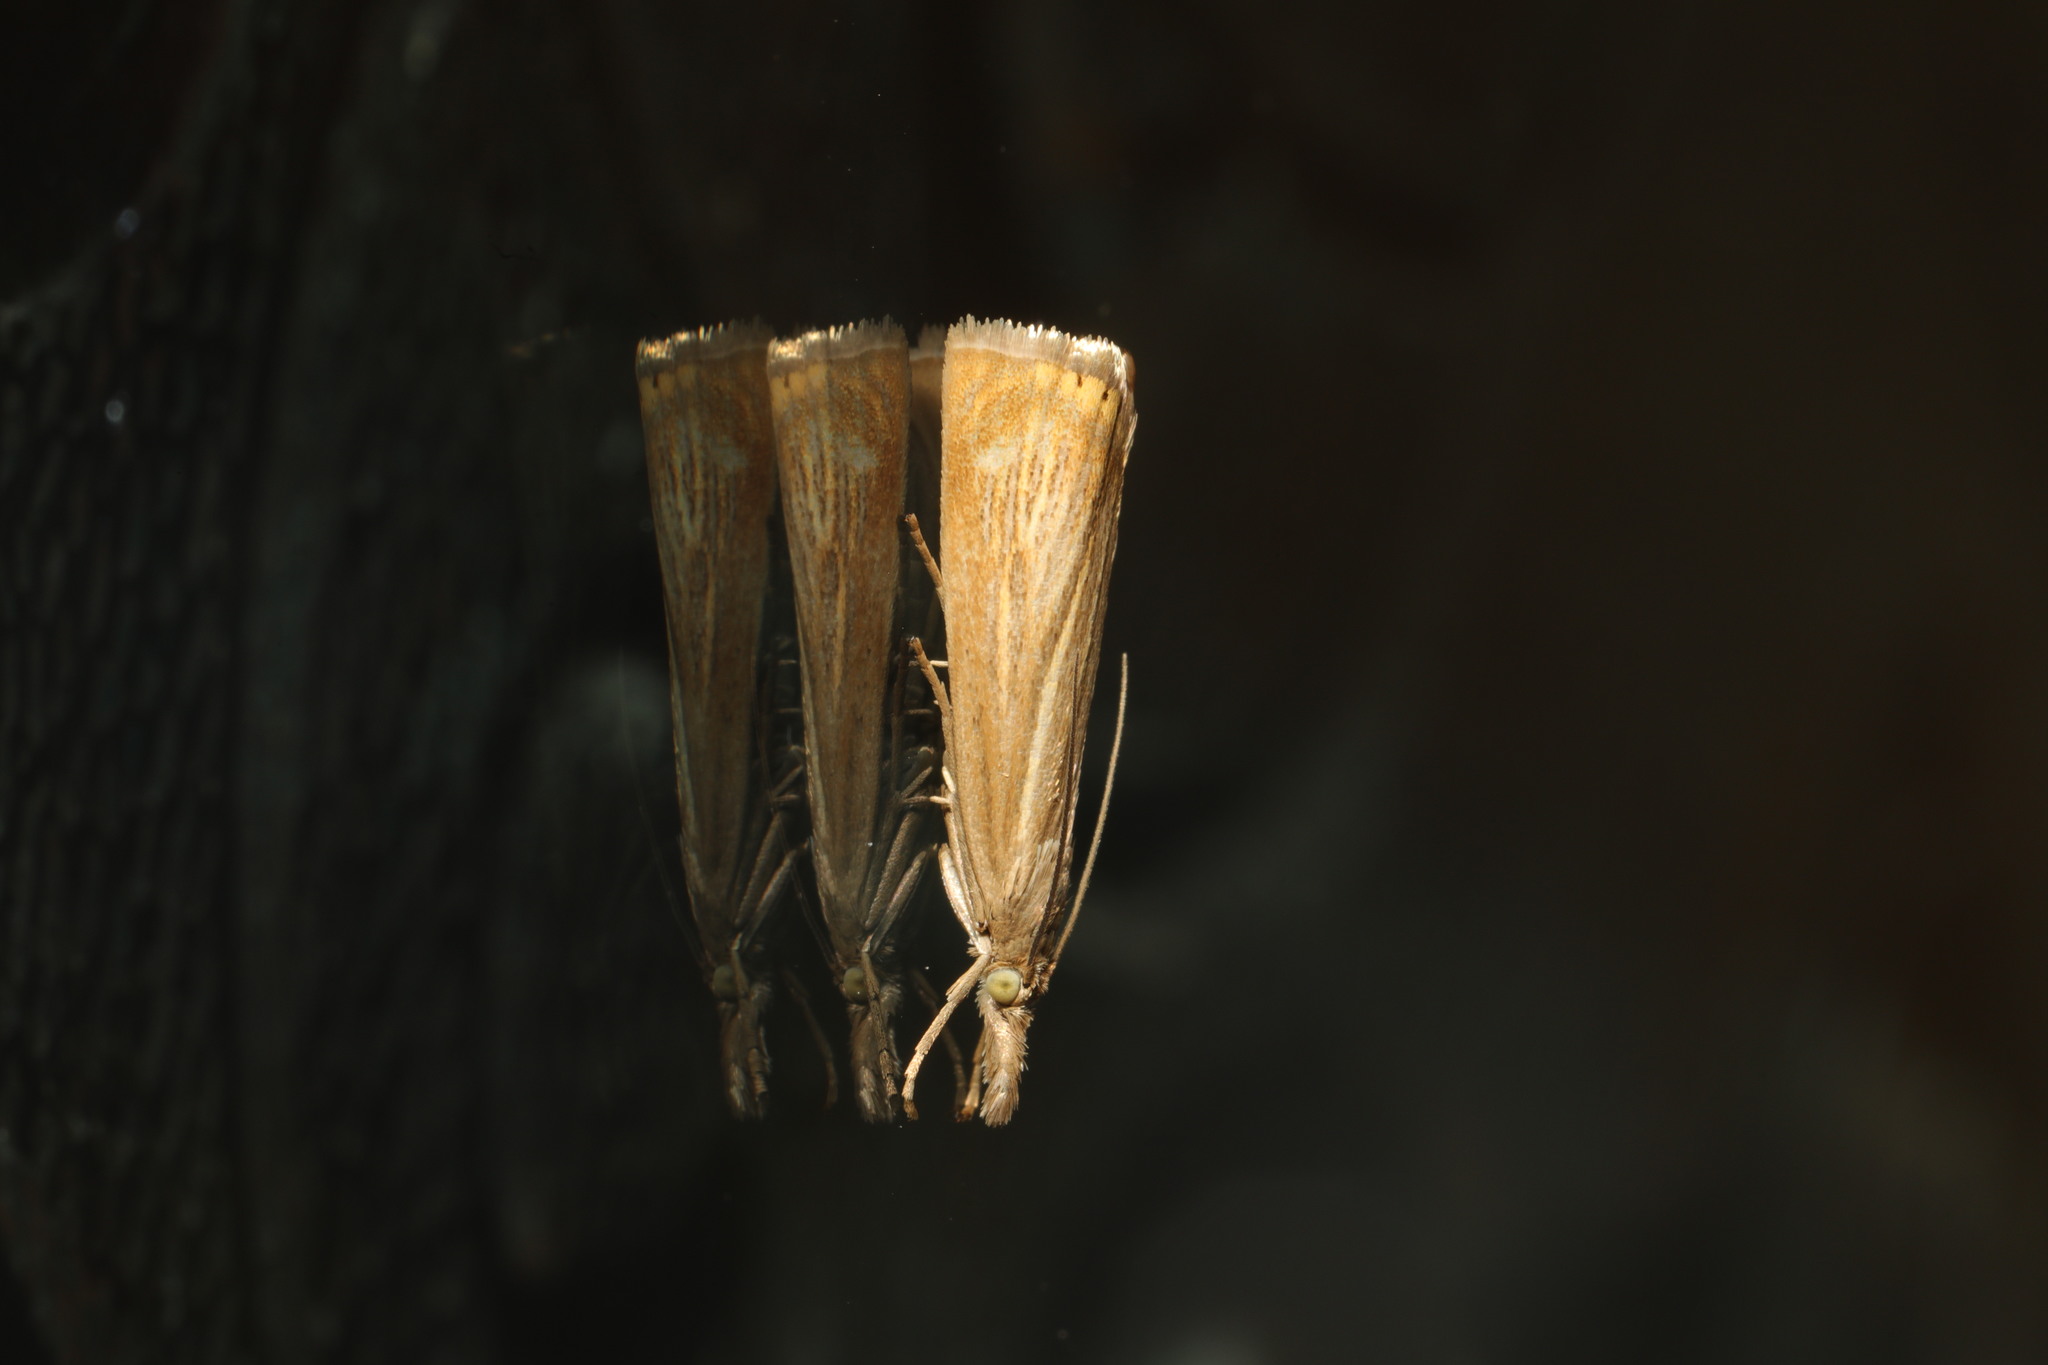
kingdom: Animalia
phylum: Arthropoda
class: Insecta
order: Lepidoptera
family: Crambidae
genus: Agriphila
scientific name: Agriphila straminella
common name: Straw grass-veneer
